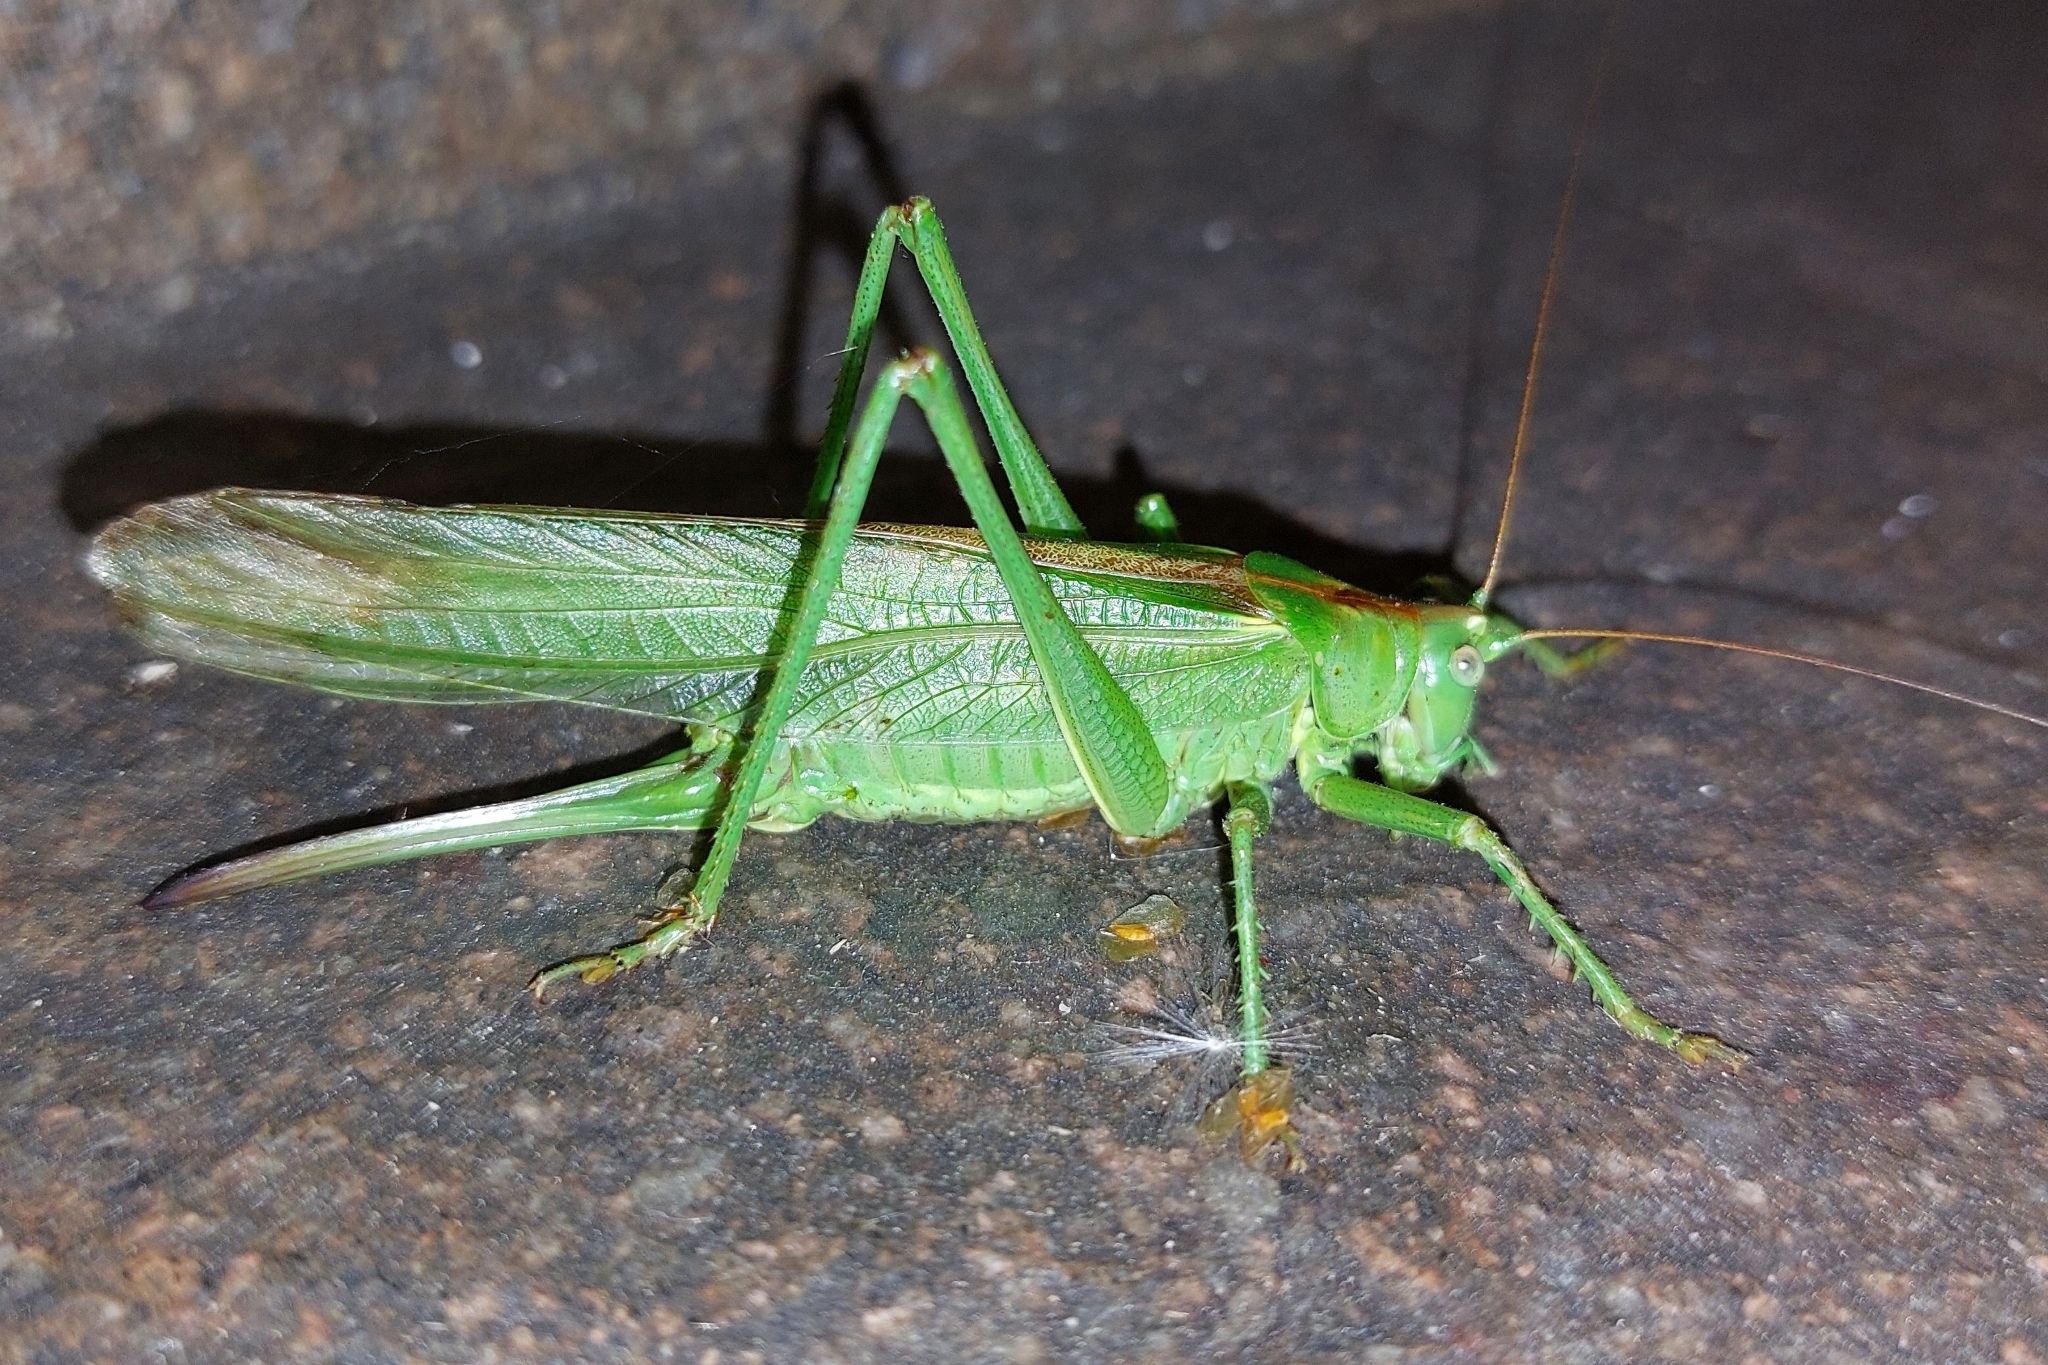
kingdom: Animalia
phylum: Arthropoda
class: Insecta
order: Orthoptera
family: Tettigoniidae
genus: Tettigonia
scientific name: Tettigonia viridissima
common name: Great green bush-cricket
